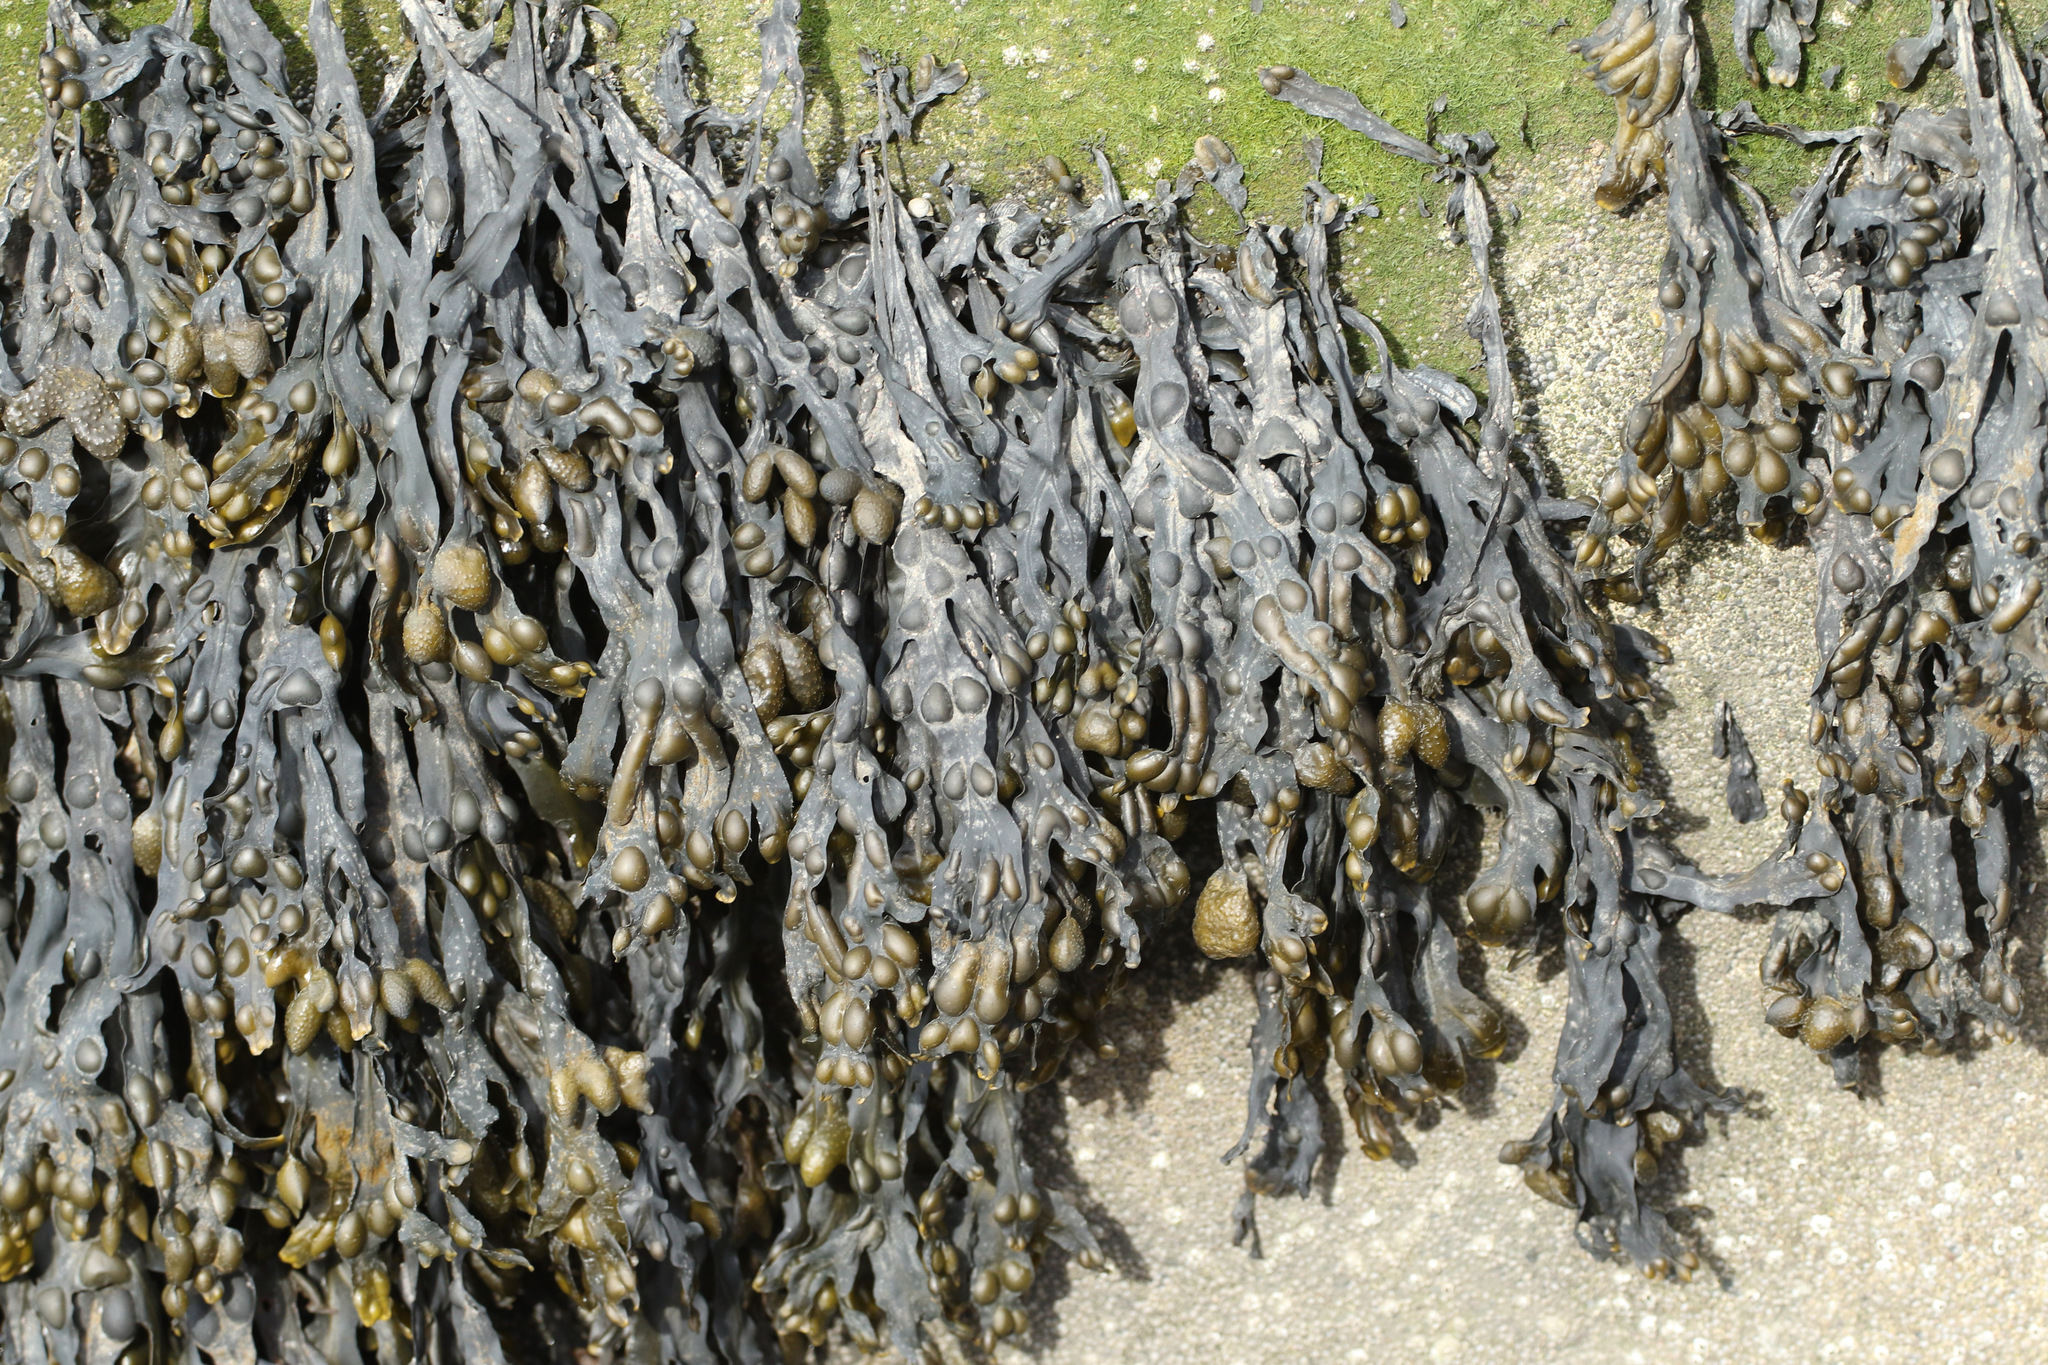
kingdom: Chromista
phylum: Ochrophyta
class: Phaeophyceae
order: Fucales
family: Fucaceae
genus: Fucus
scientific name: Fucus vesiculosus
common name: Bladder wrack
